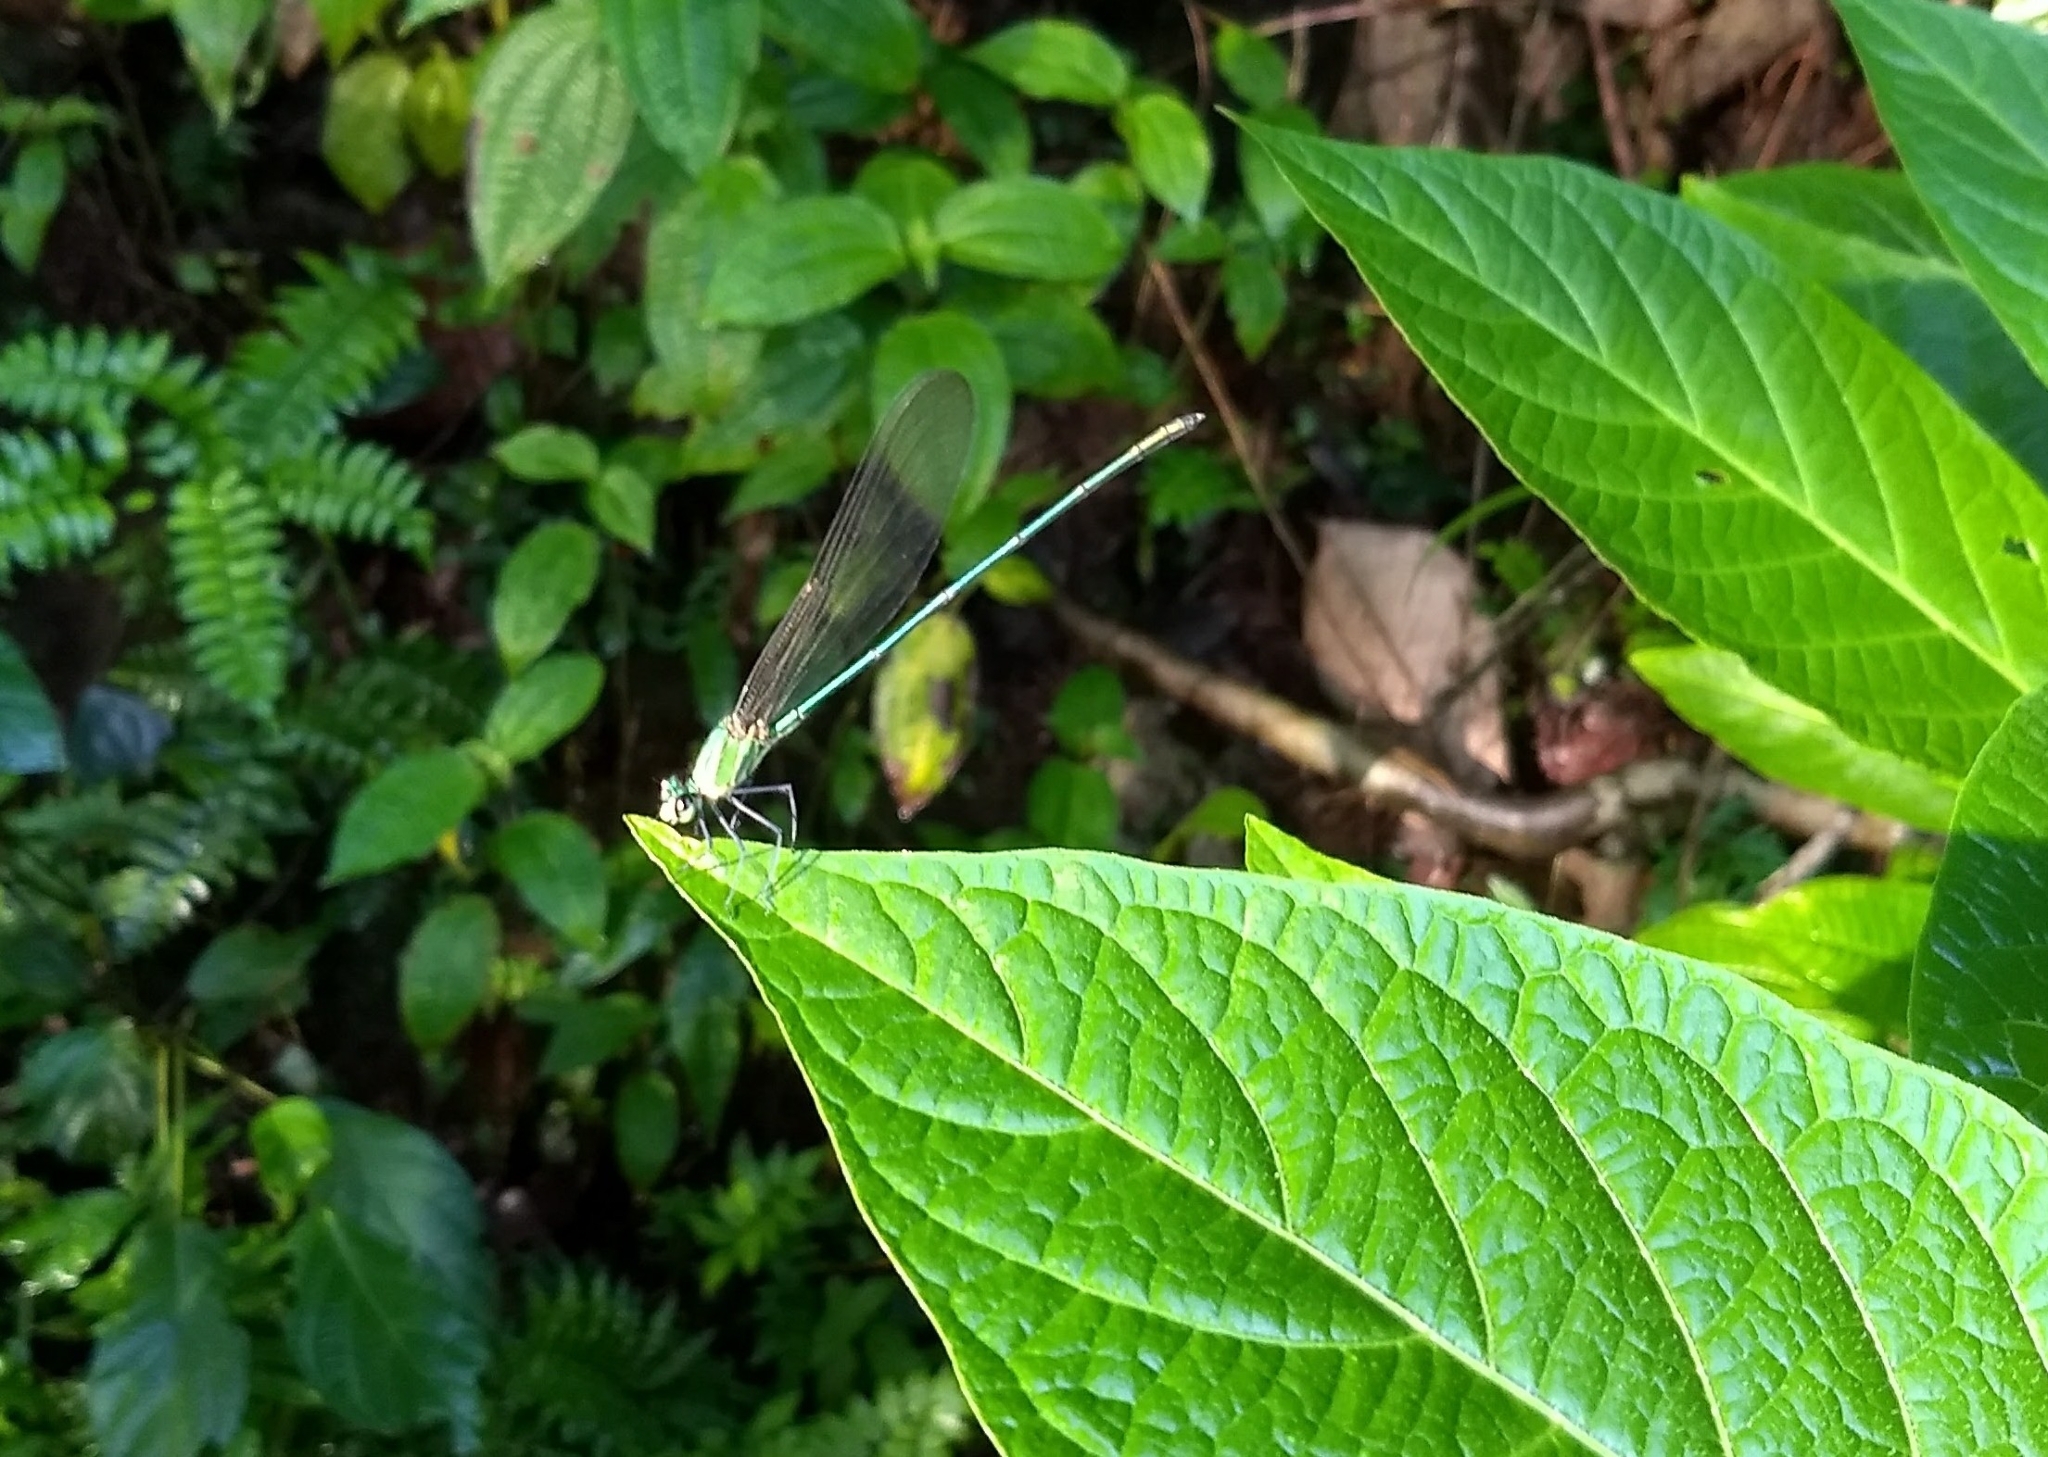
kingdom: Animalia
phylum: Arthropoda
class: Insecta
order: Odonata
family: Calopterygidae
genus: Vestalis
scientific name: Vestalis gracilis
